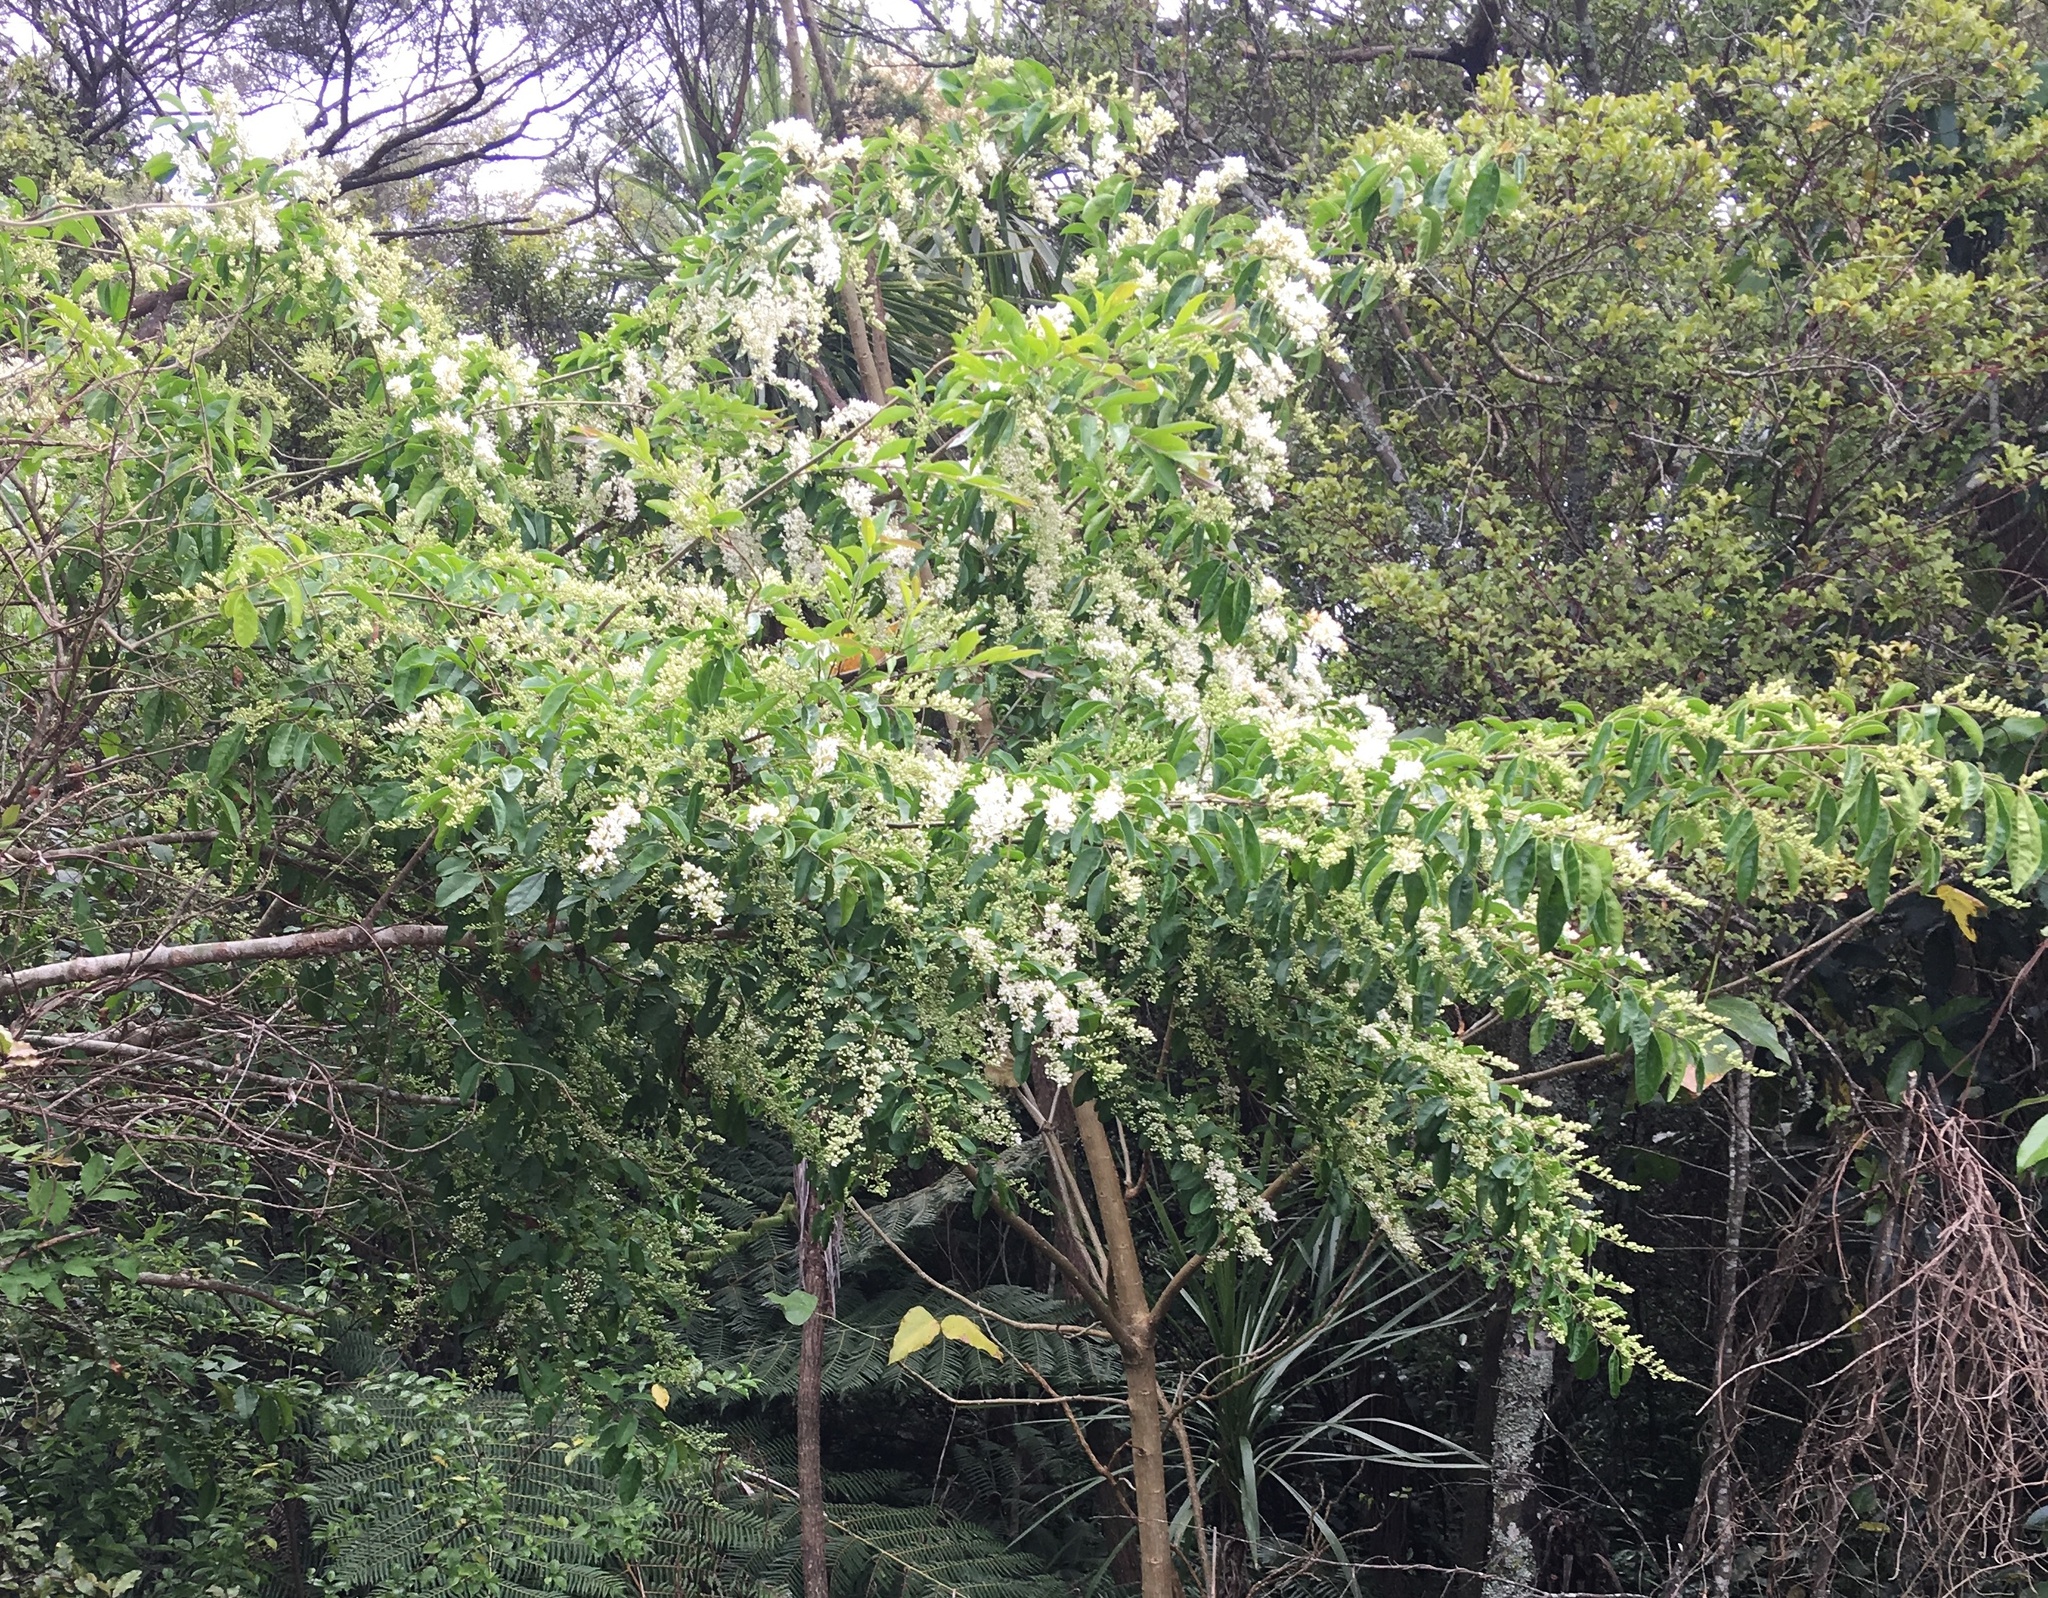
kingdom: Plantae
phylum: Tracheophyta
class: Magnoliopsida
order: Lamiales
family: Oleaceae
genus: Ligustrum
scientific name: Ligustrum sinense
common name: Chinese privet
